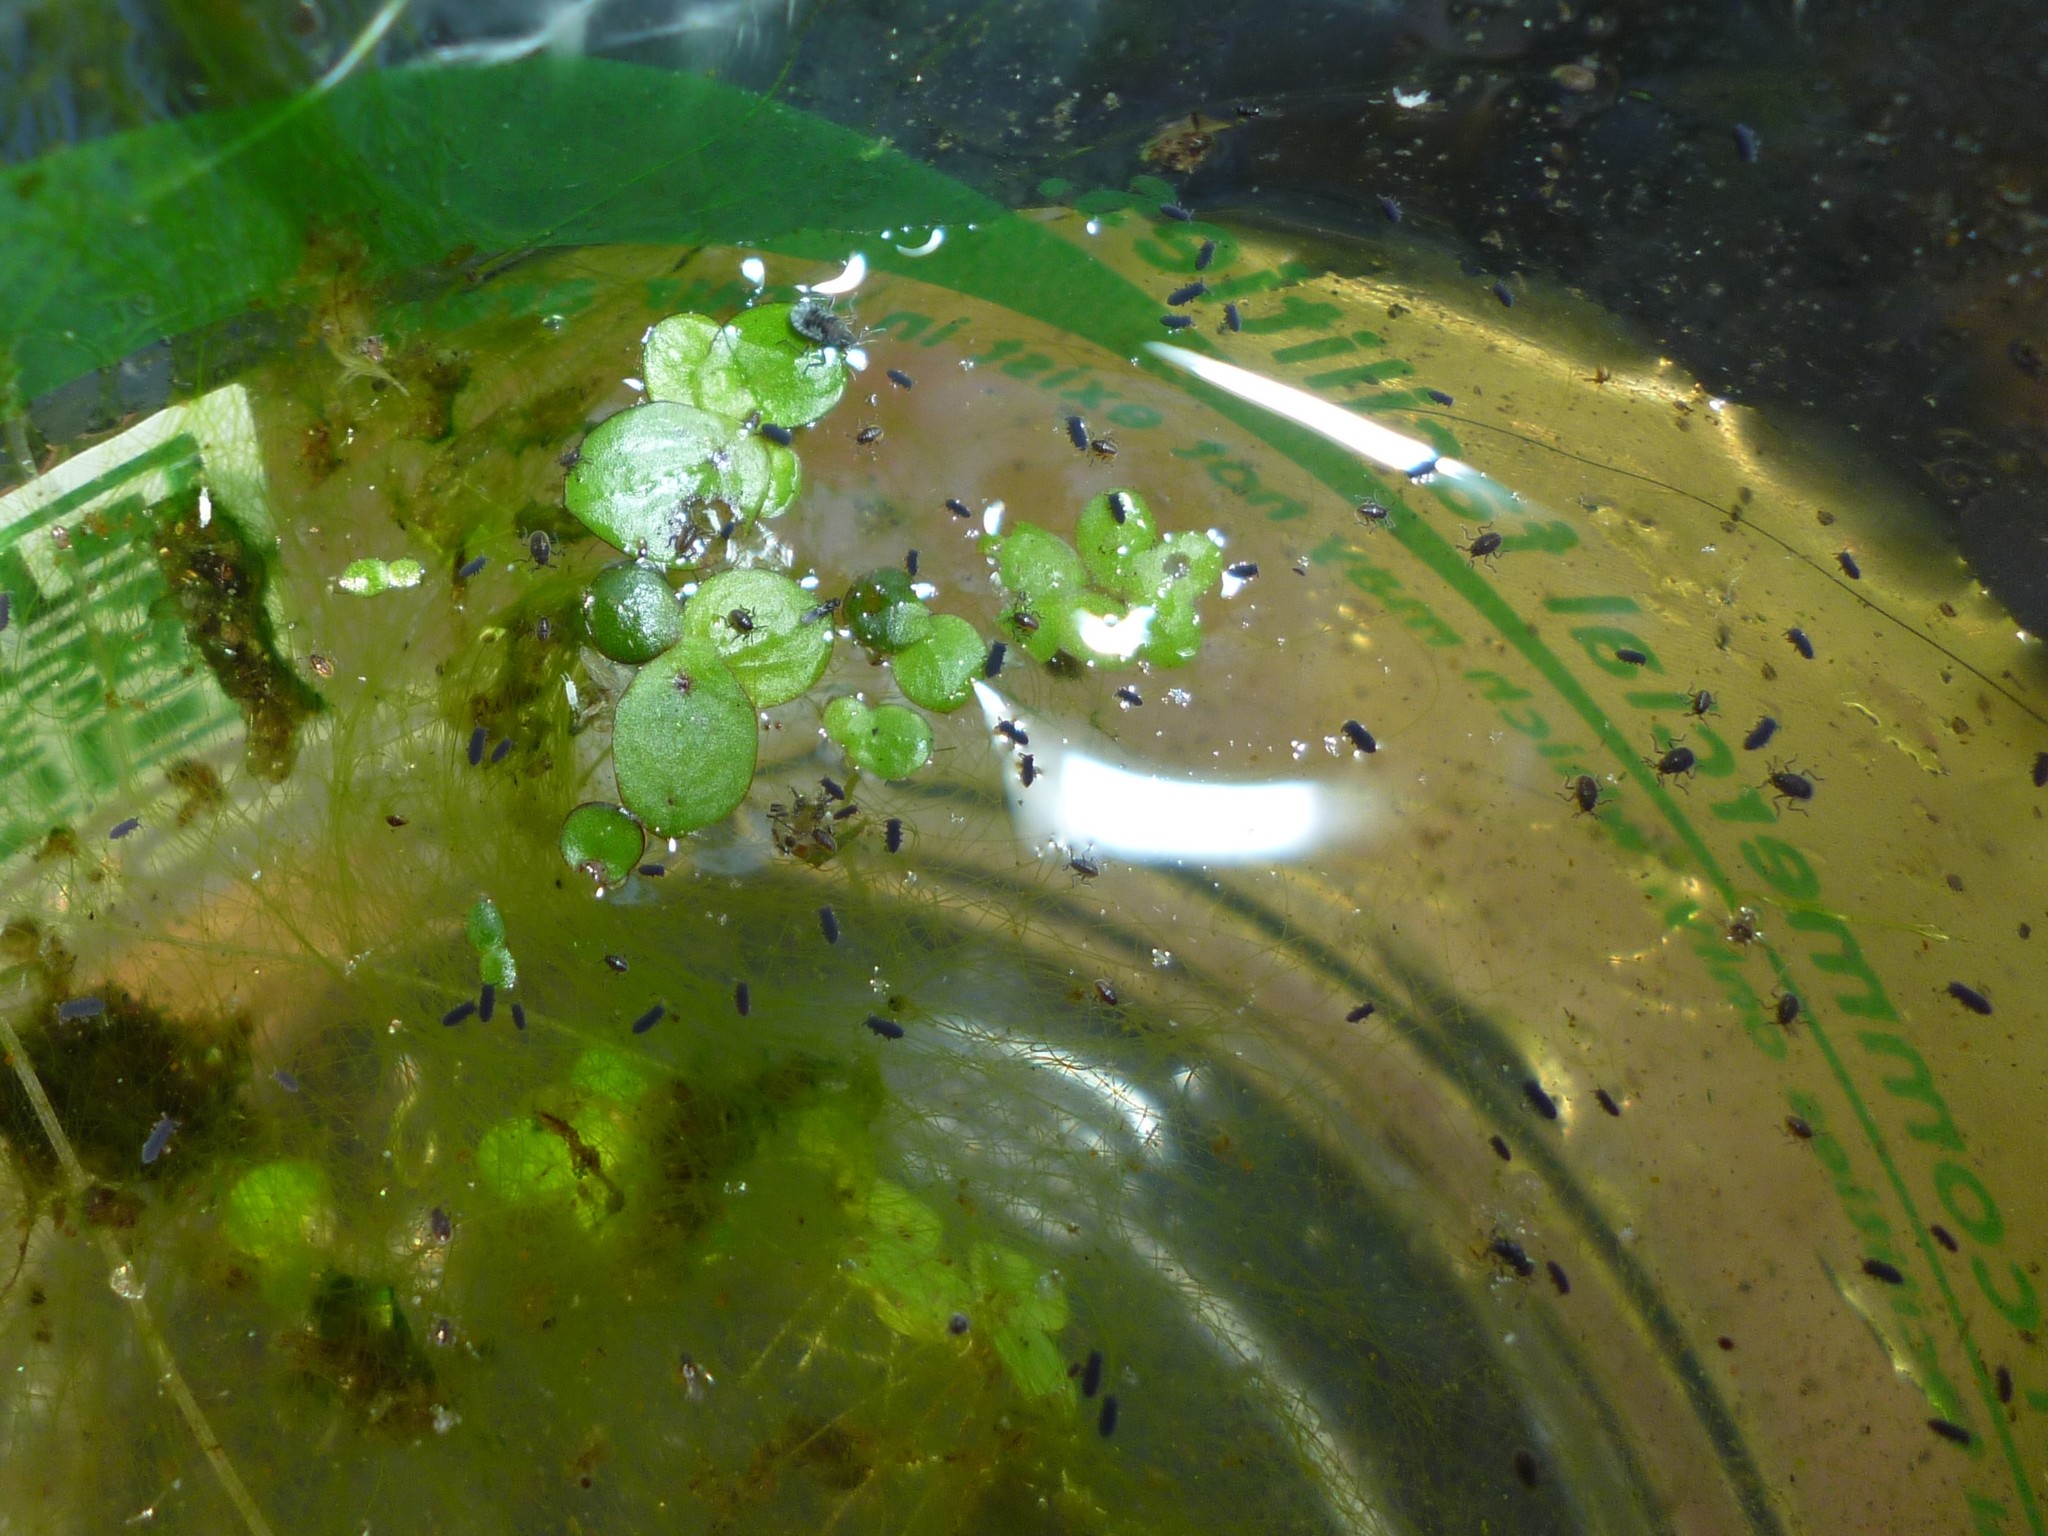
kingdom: Animalia
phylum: Arthropoda
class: Collembola
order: Poduromorpha
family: Poduridae
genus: Podura
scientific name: Podura aquatica
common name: Water springtail
